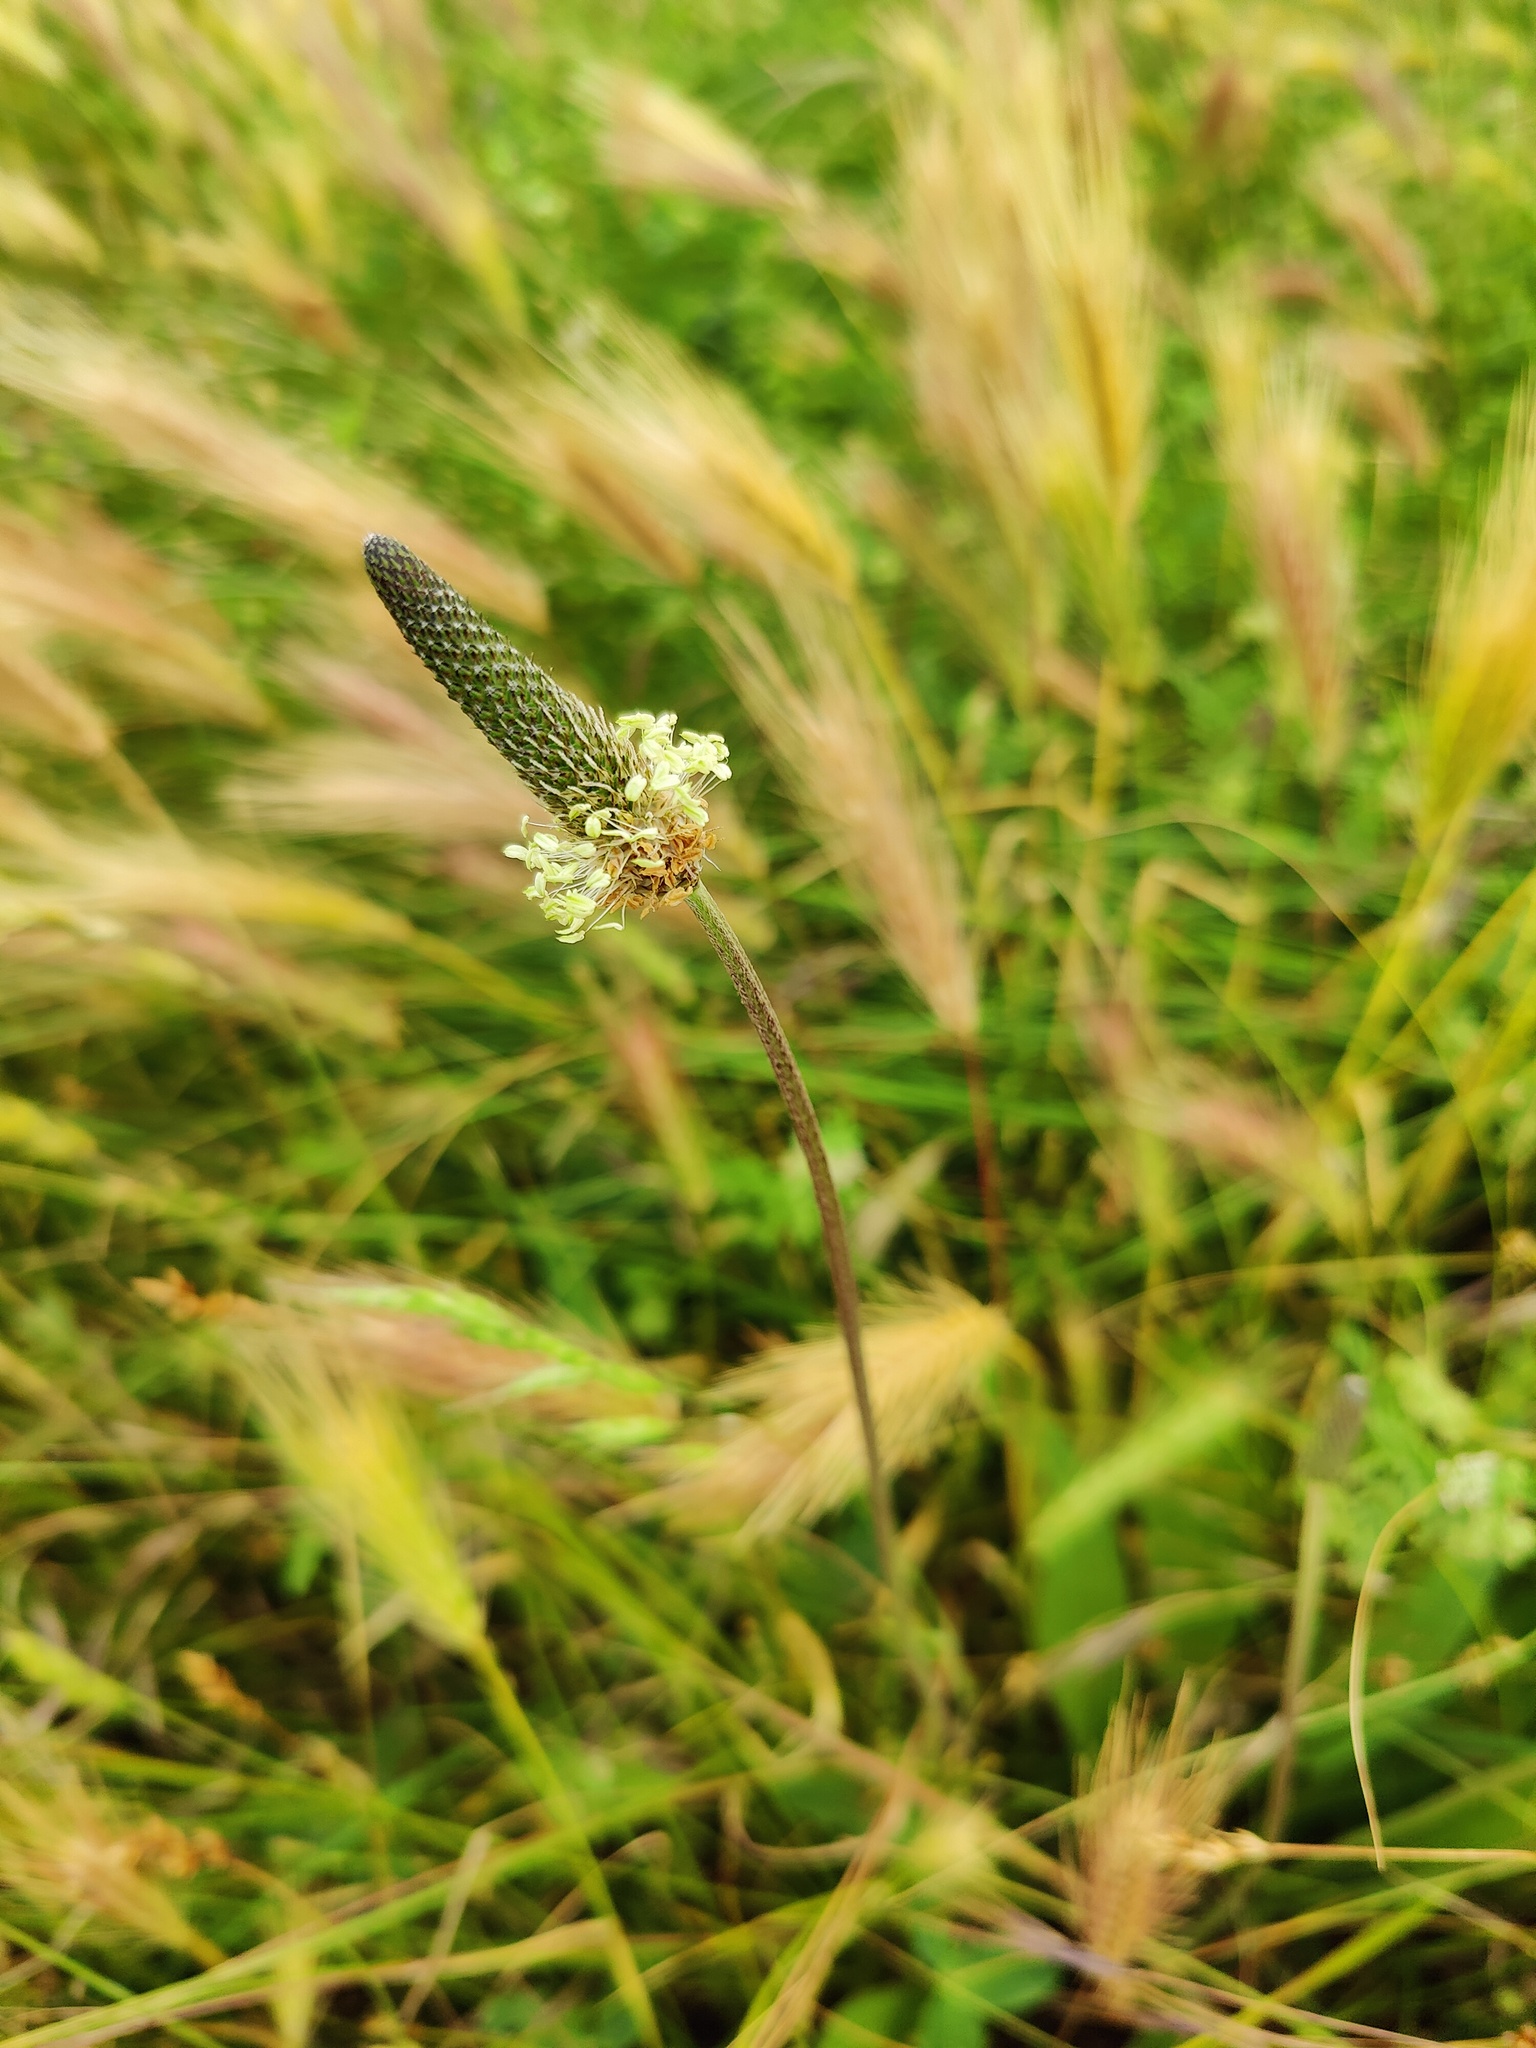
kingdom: Plantae
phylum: Tracheophyta
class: Magnoliopsida
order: Lamiales
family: Plantaginaceae
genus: Plantago
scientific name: Plantago lanceolata
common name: Ribwort plantain
